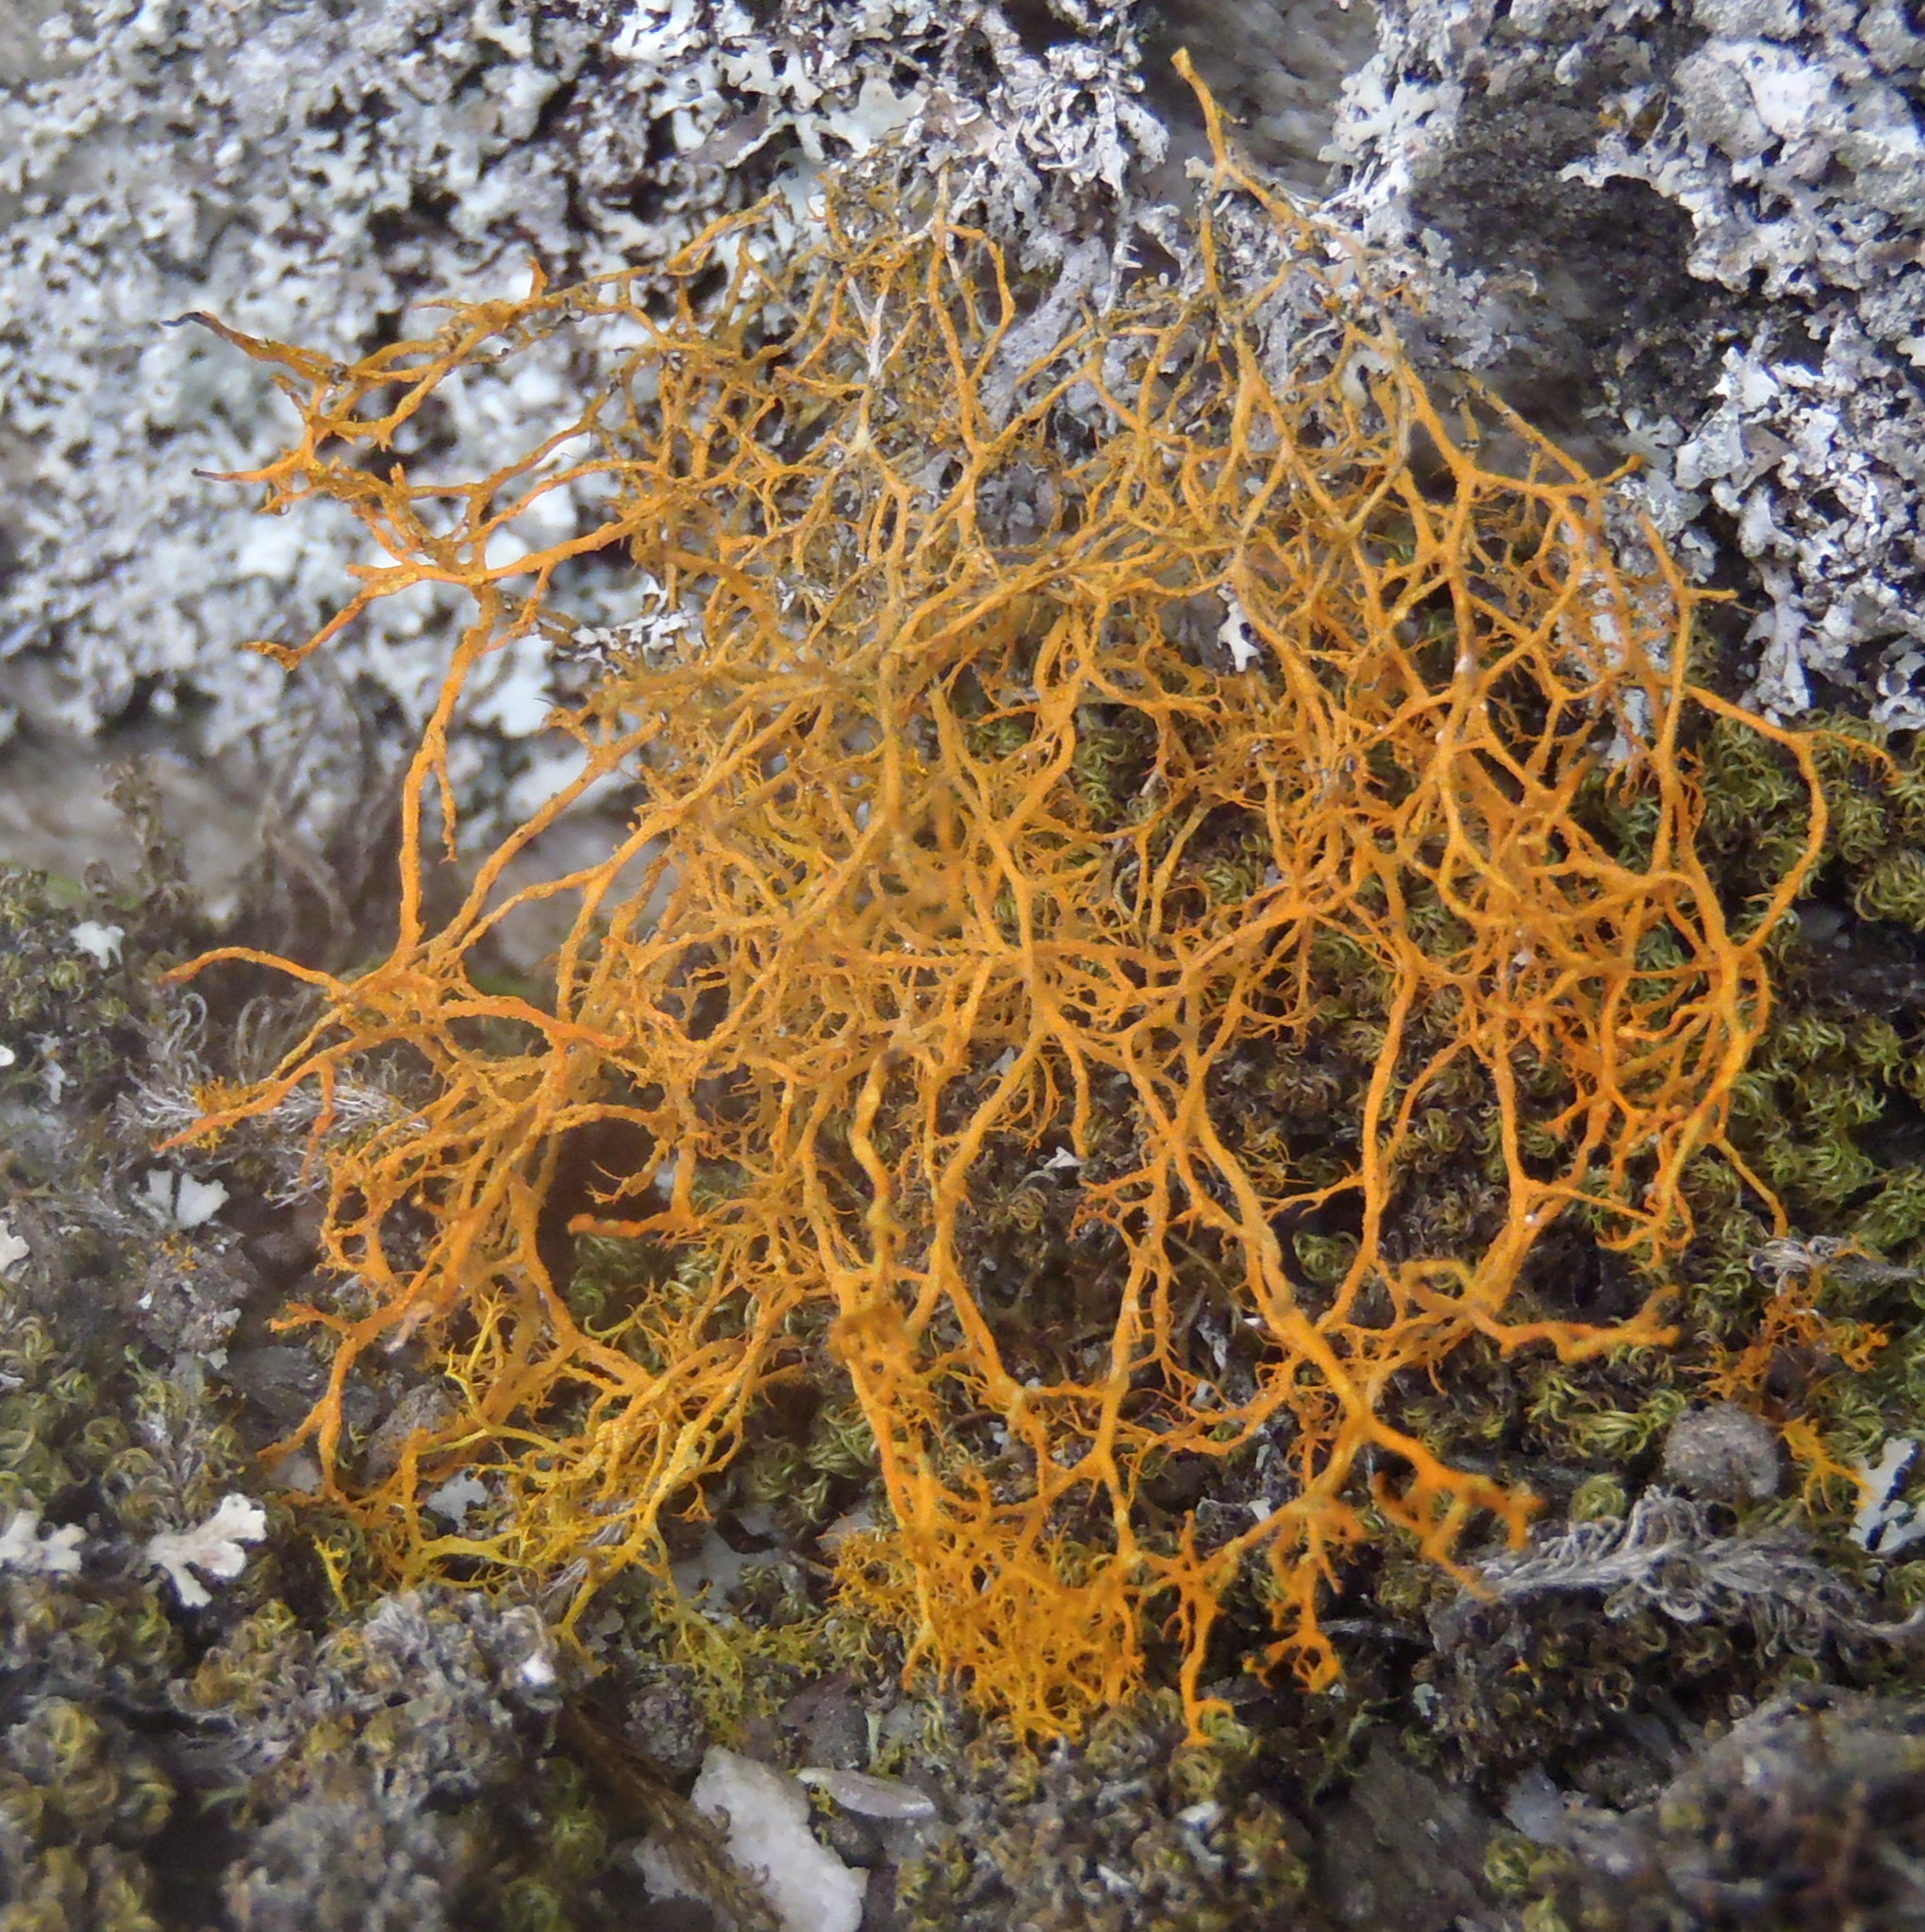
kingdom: Fungi
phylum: Ascomycota
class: Lecanoromycetes
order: Teloschistales
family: Teloschistaceae
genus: Teloschistes
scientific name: Teloschistes flavicans
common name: Golden hair-lichen
